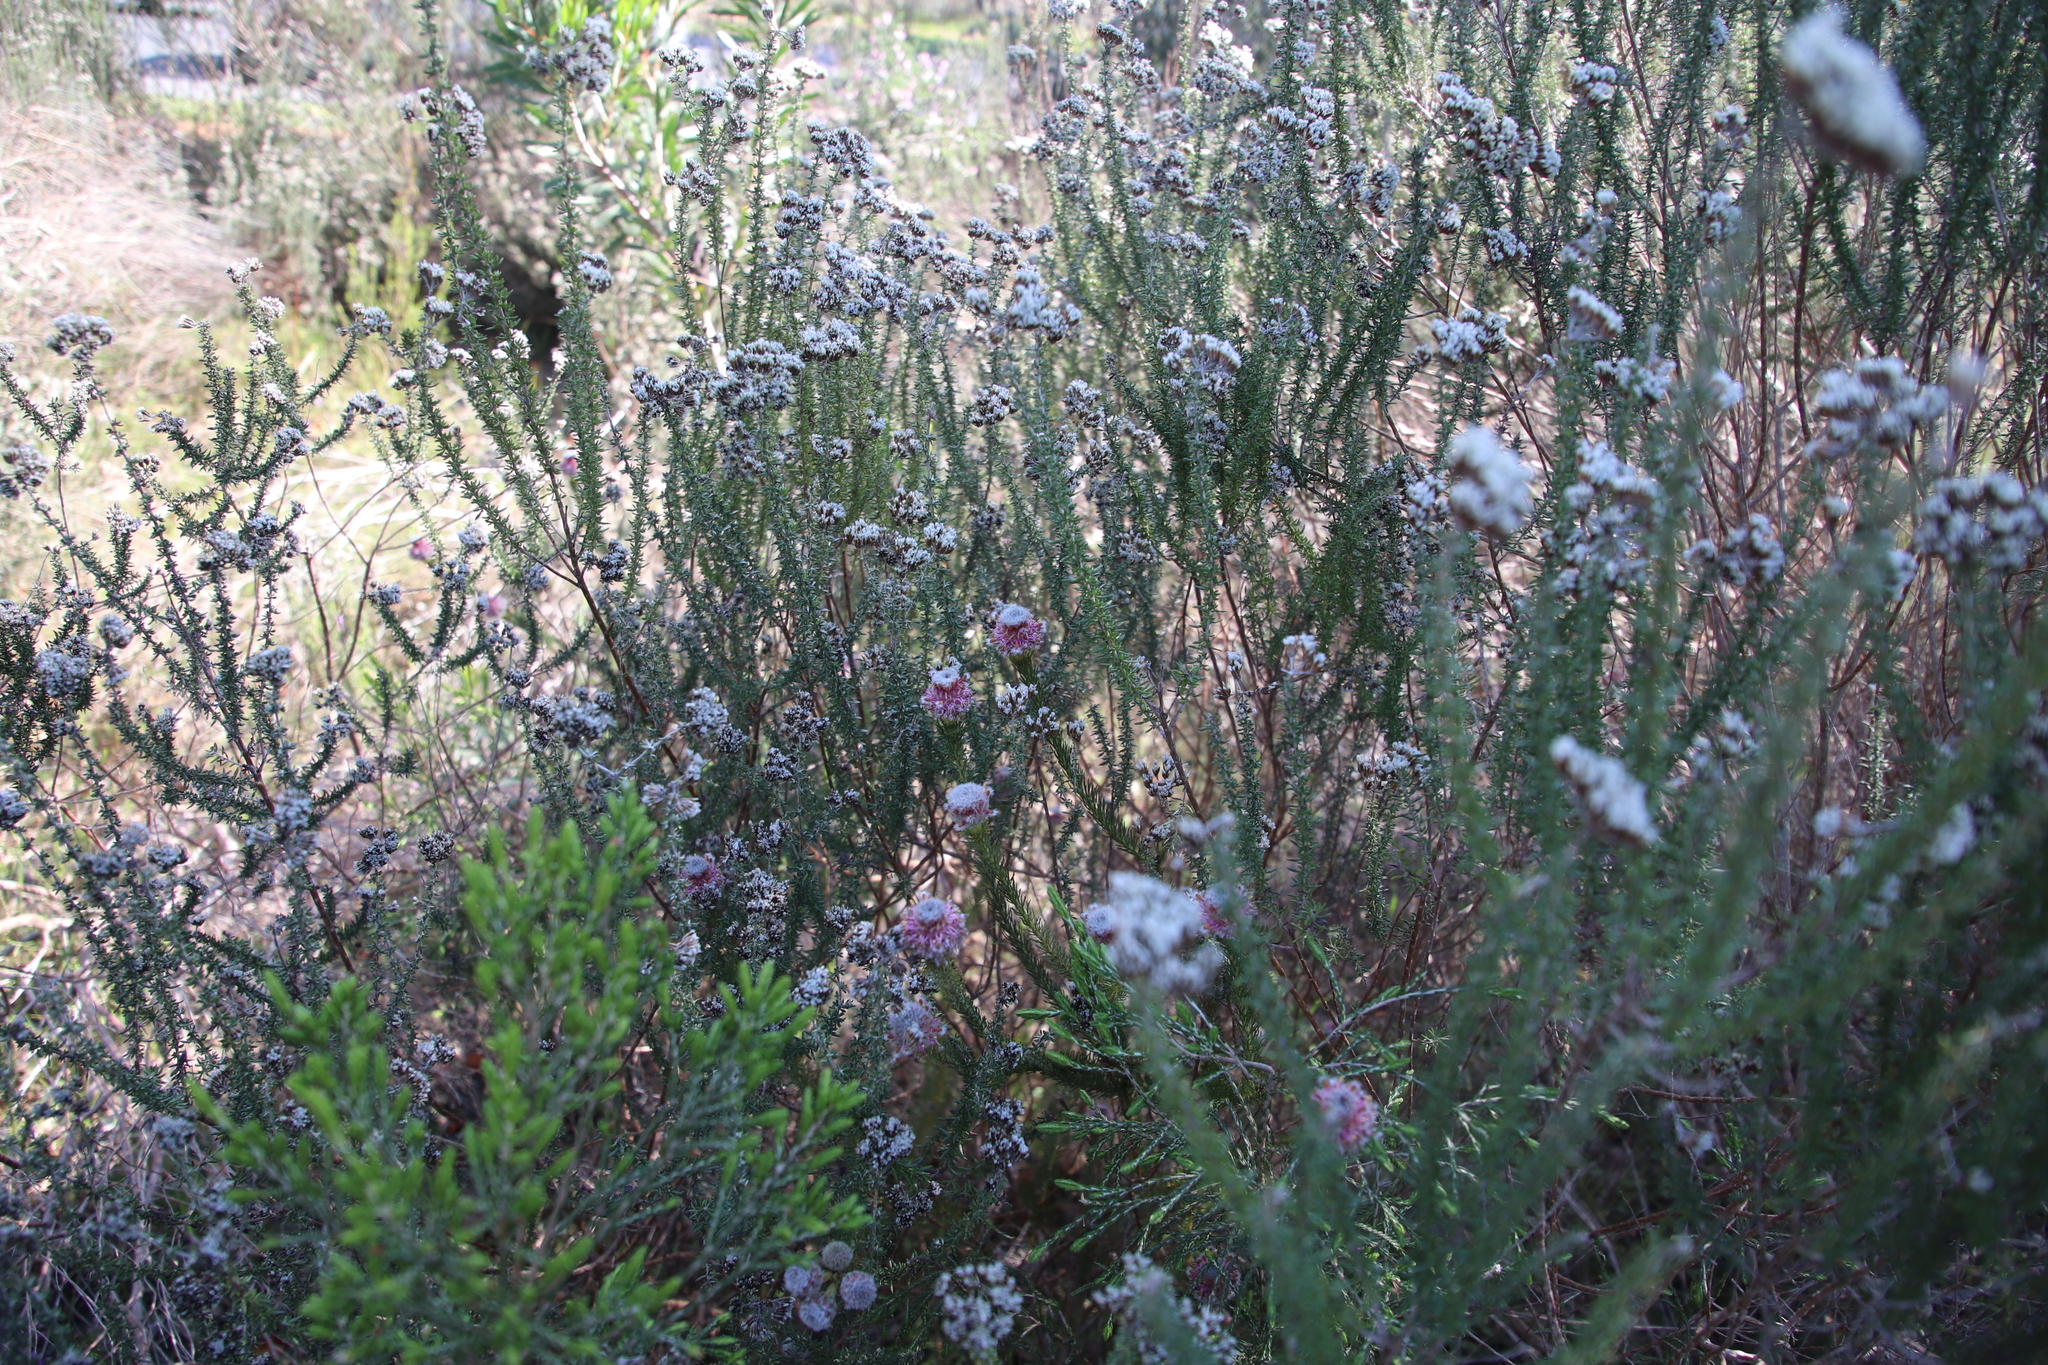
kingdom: Plantae
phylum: Tracheophyta
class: Magnoliopsida
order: Proteales
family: Proteaceae
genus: Serruria
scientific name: Serruria trilopha
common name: Trident spiderhead
